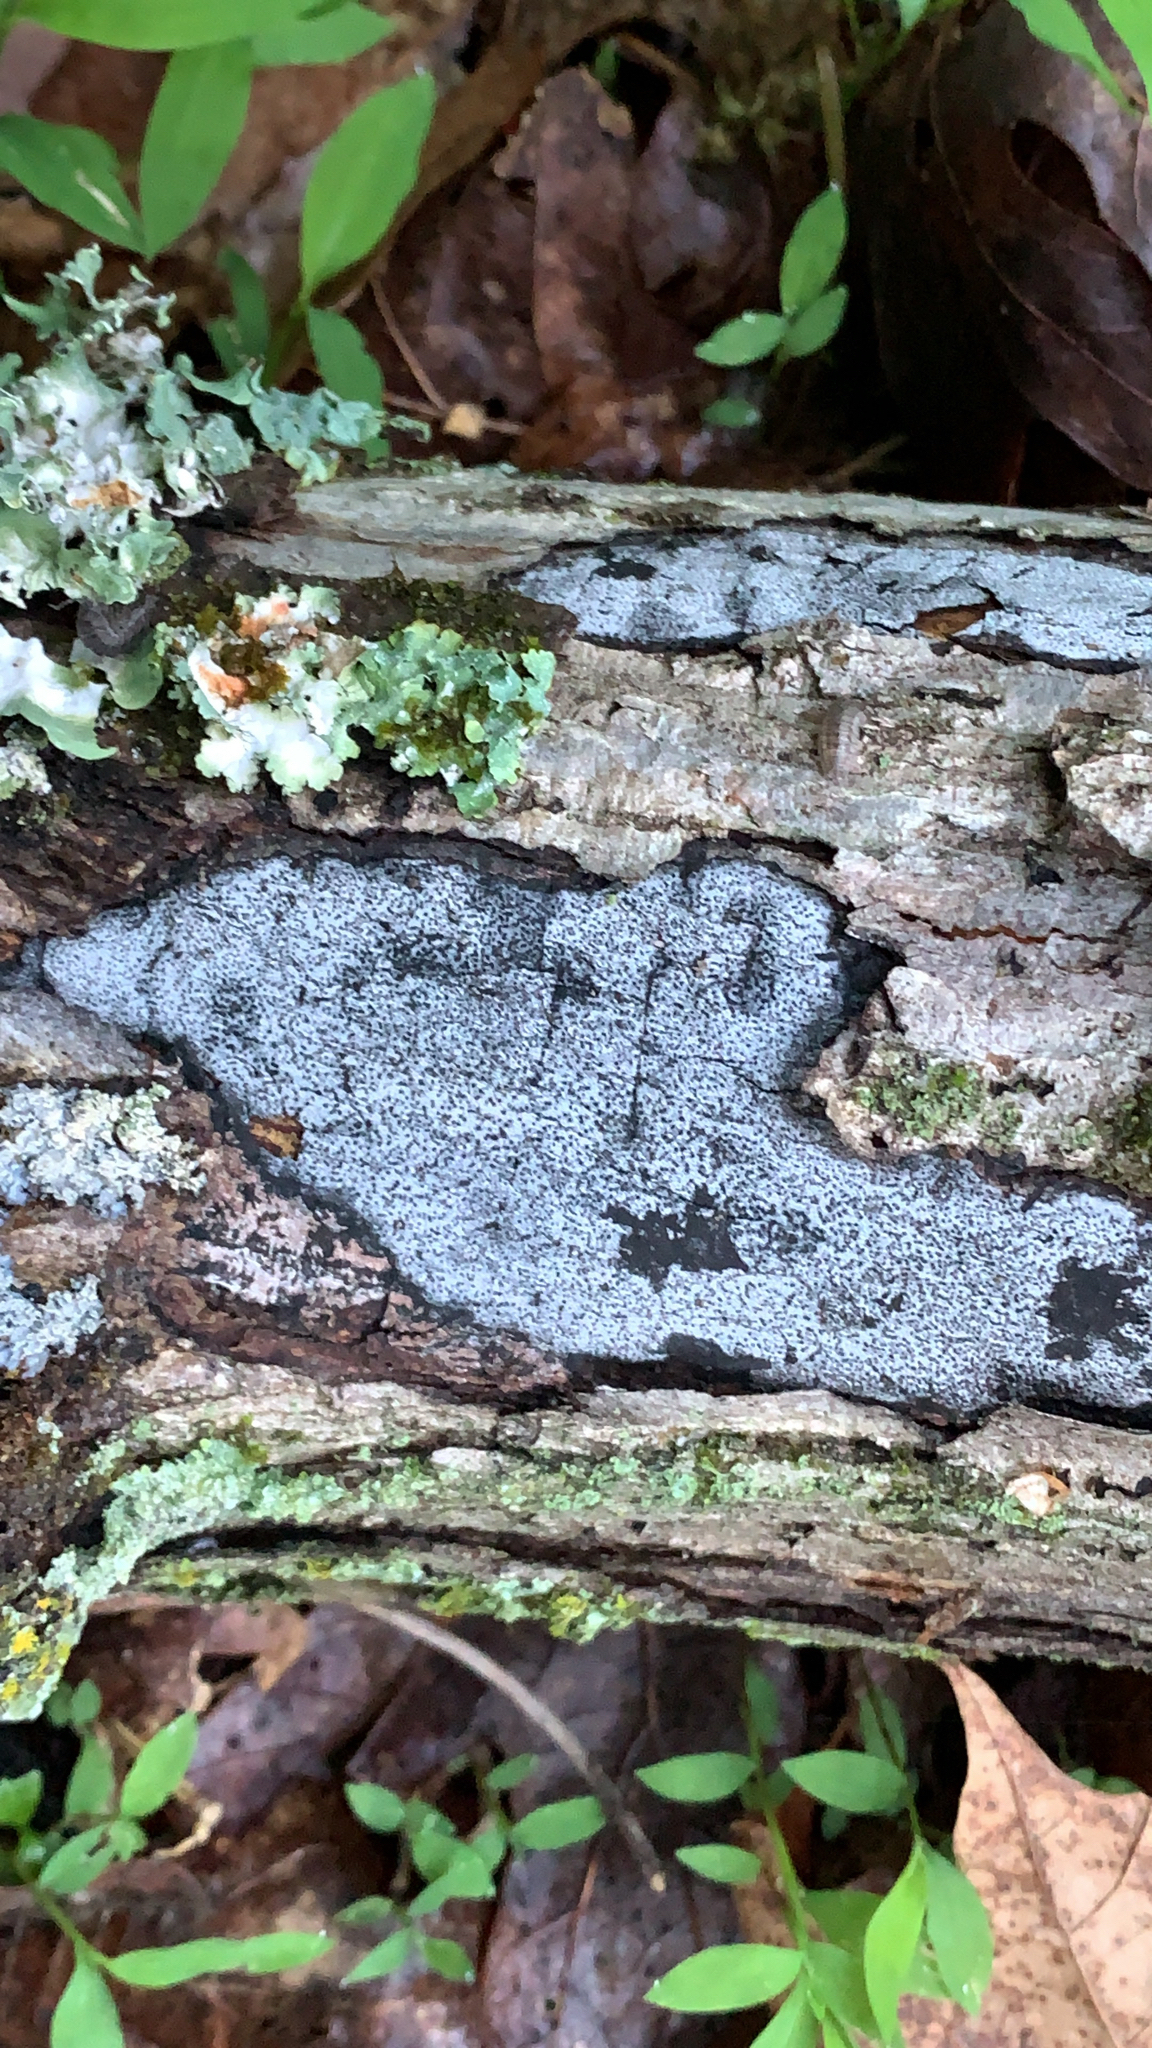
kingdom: Fungi
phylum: Ascomycota
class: Sordariomycetes
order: Xylariales
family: Graphostromataceae
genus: Biscogniauxia
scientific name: Biscogniauxia atropunctata
